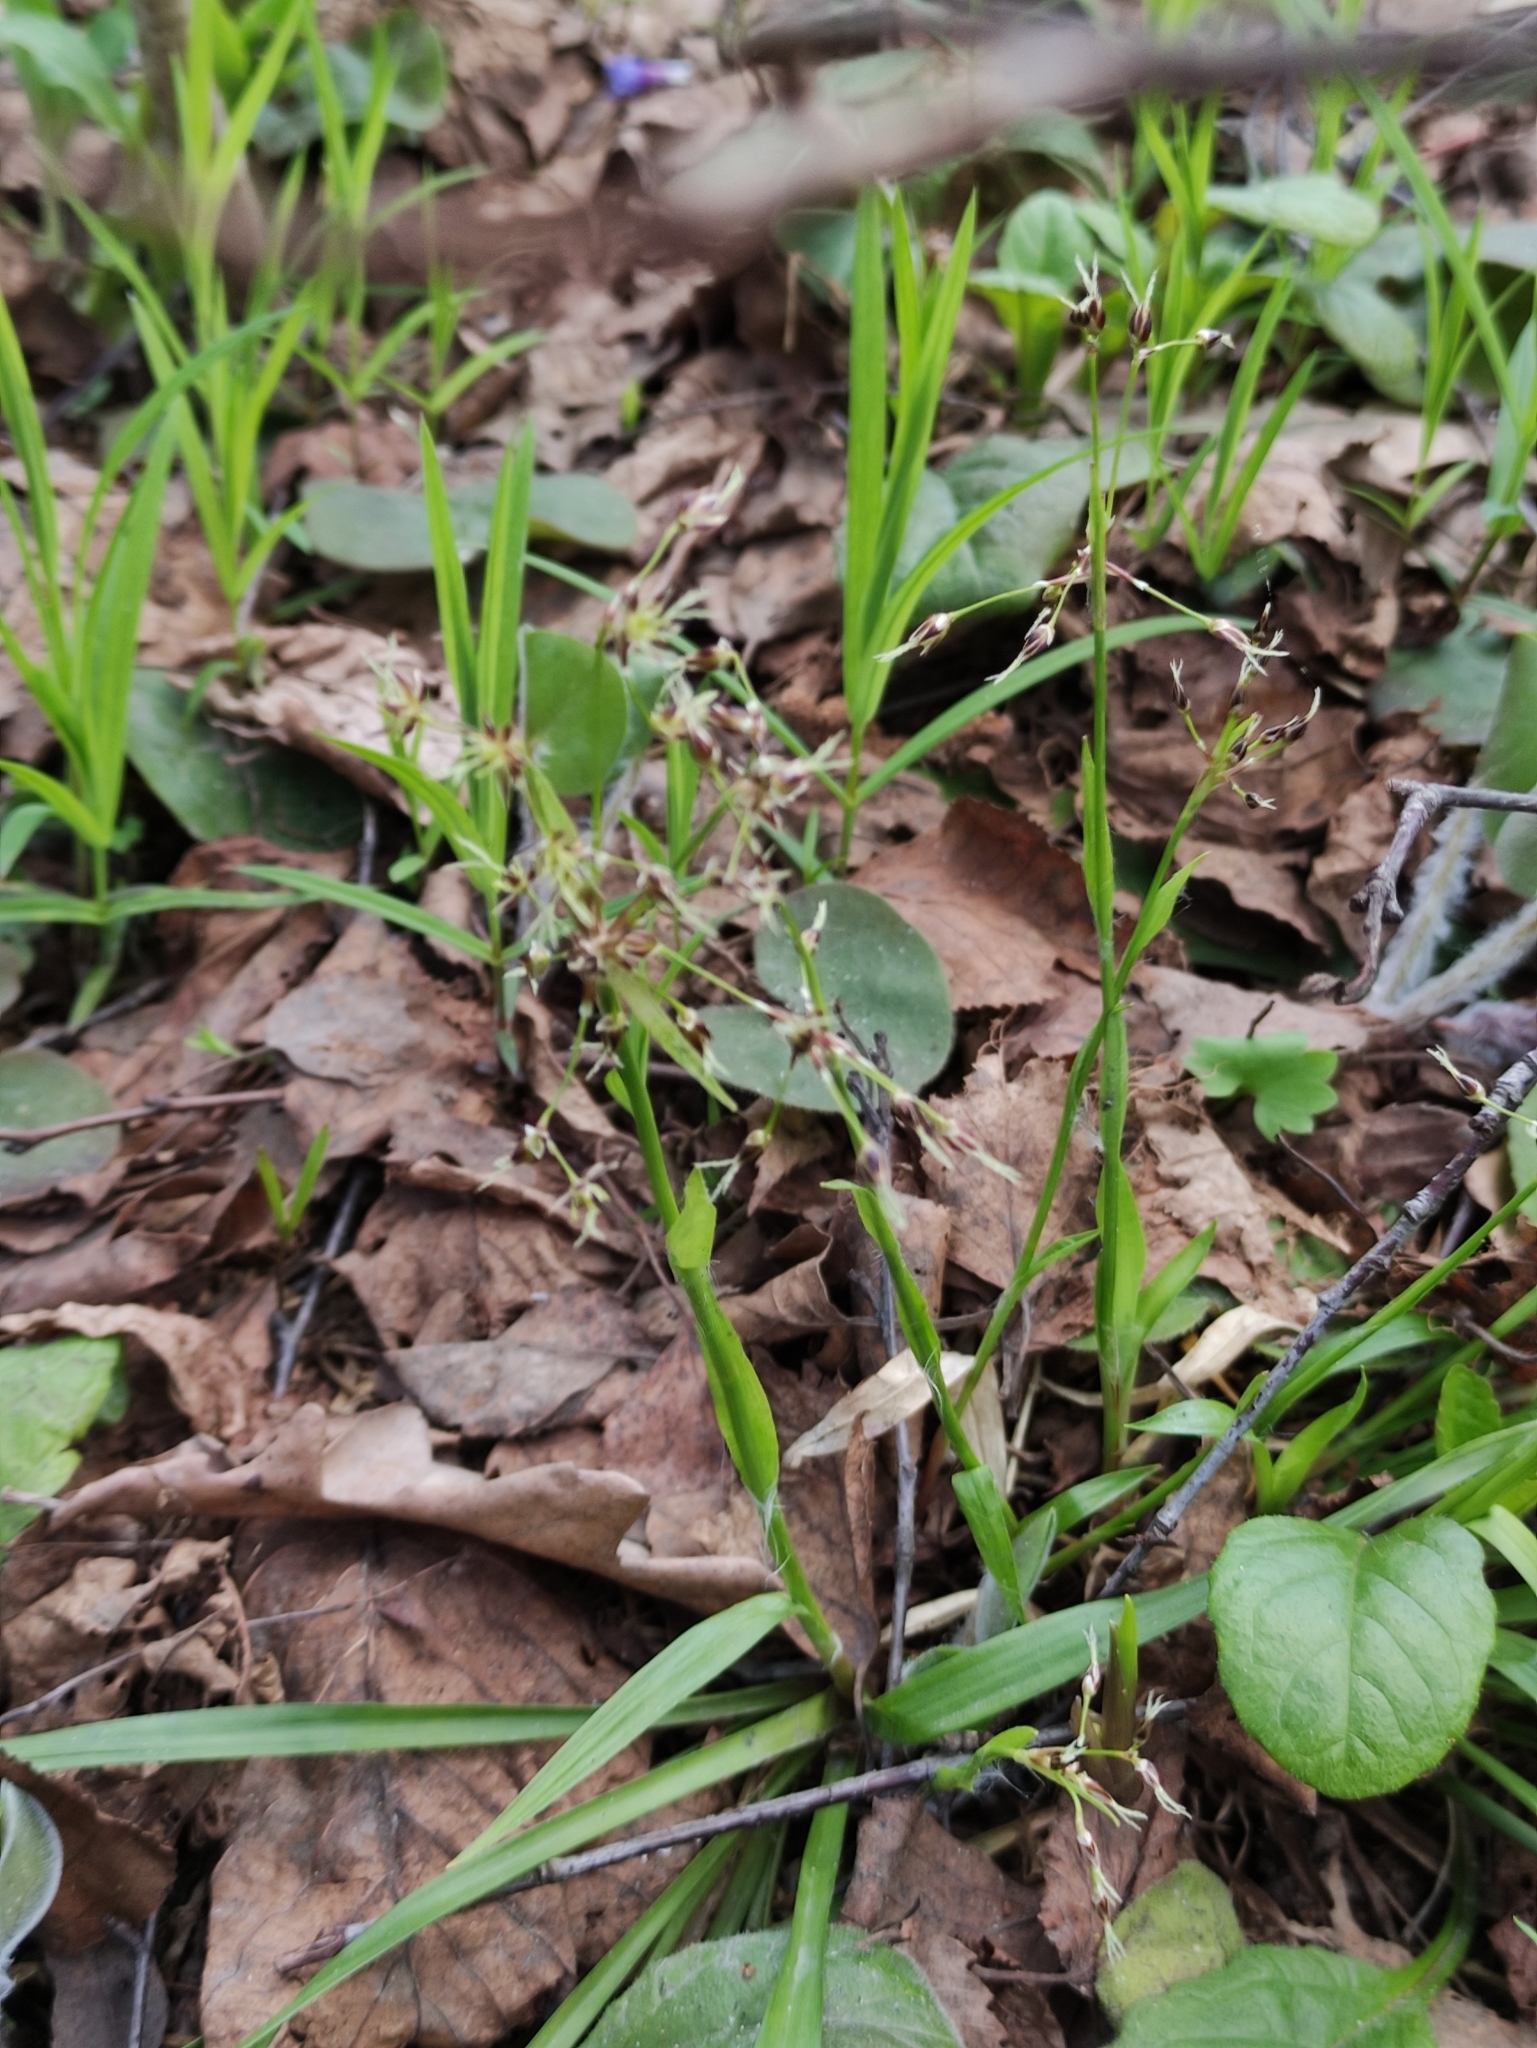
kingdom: Plantae
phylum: Tracheophyta
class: Liliopsida
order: Poales
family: Juncaceae
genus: Luzula
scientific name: Luzula pilosa
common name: Hairy wood-rush
